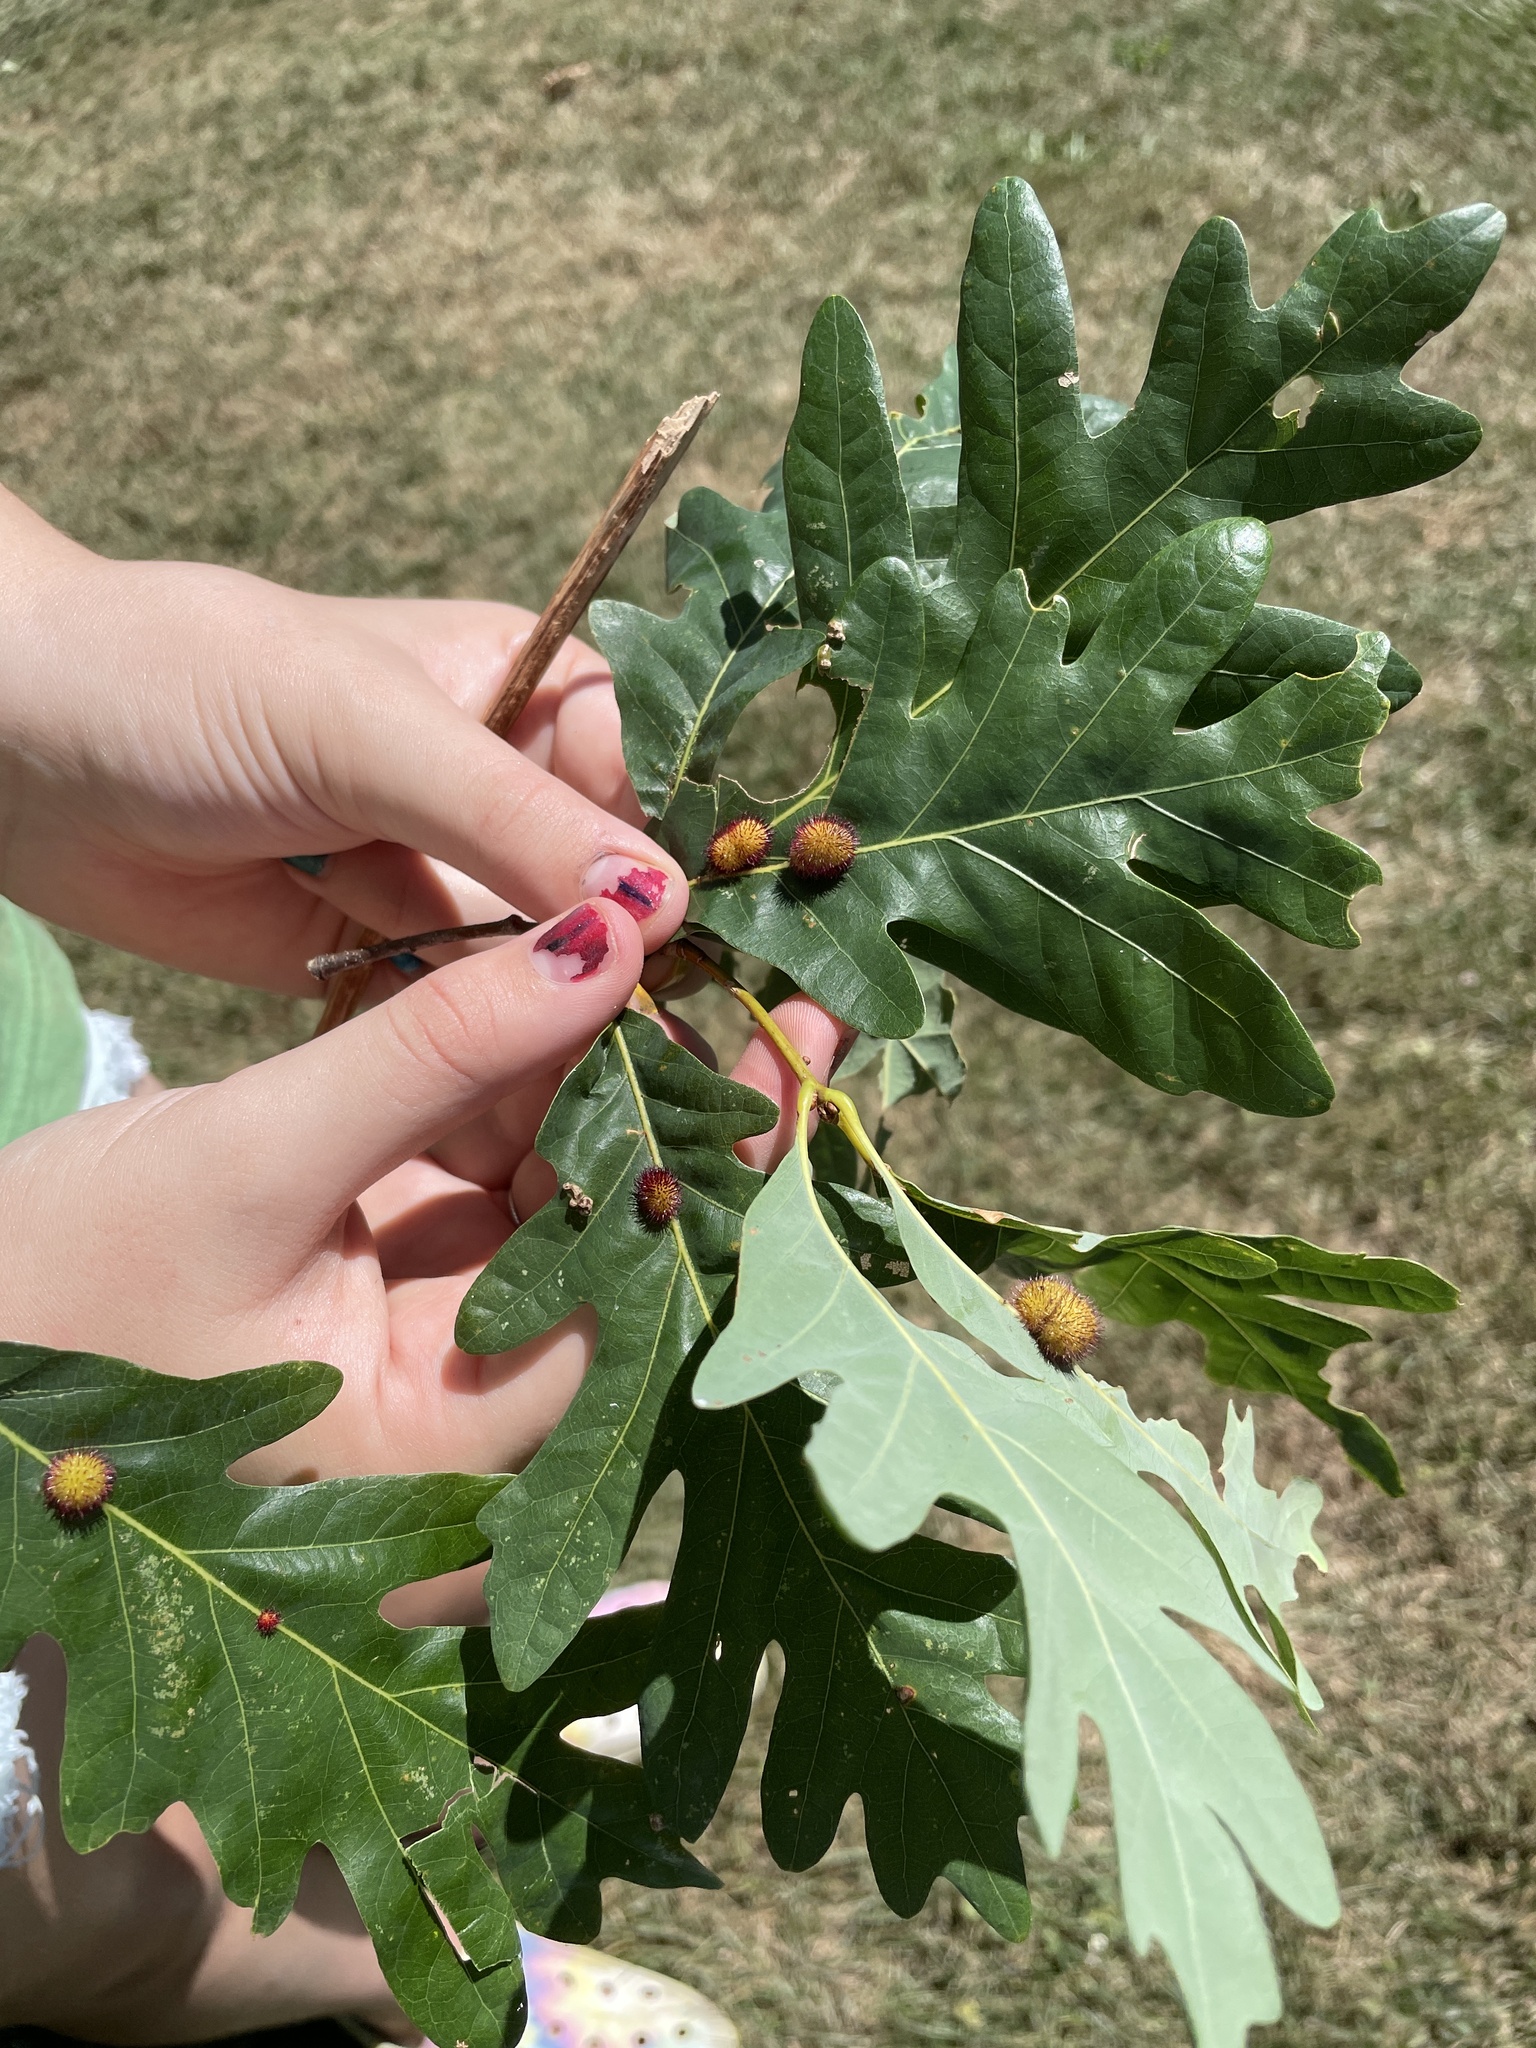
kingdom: Animalia
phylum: Arthropoda
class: Insecta
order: Hymenoptera
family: Cynipidae
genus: Acraspis
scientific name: Acraspis erinacei
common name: Hedgehog gall wasp
